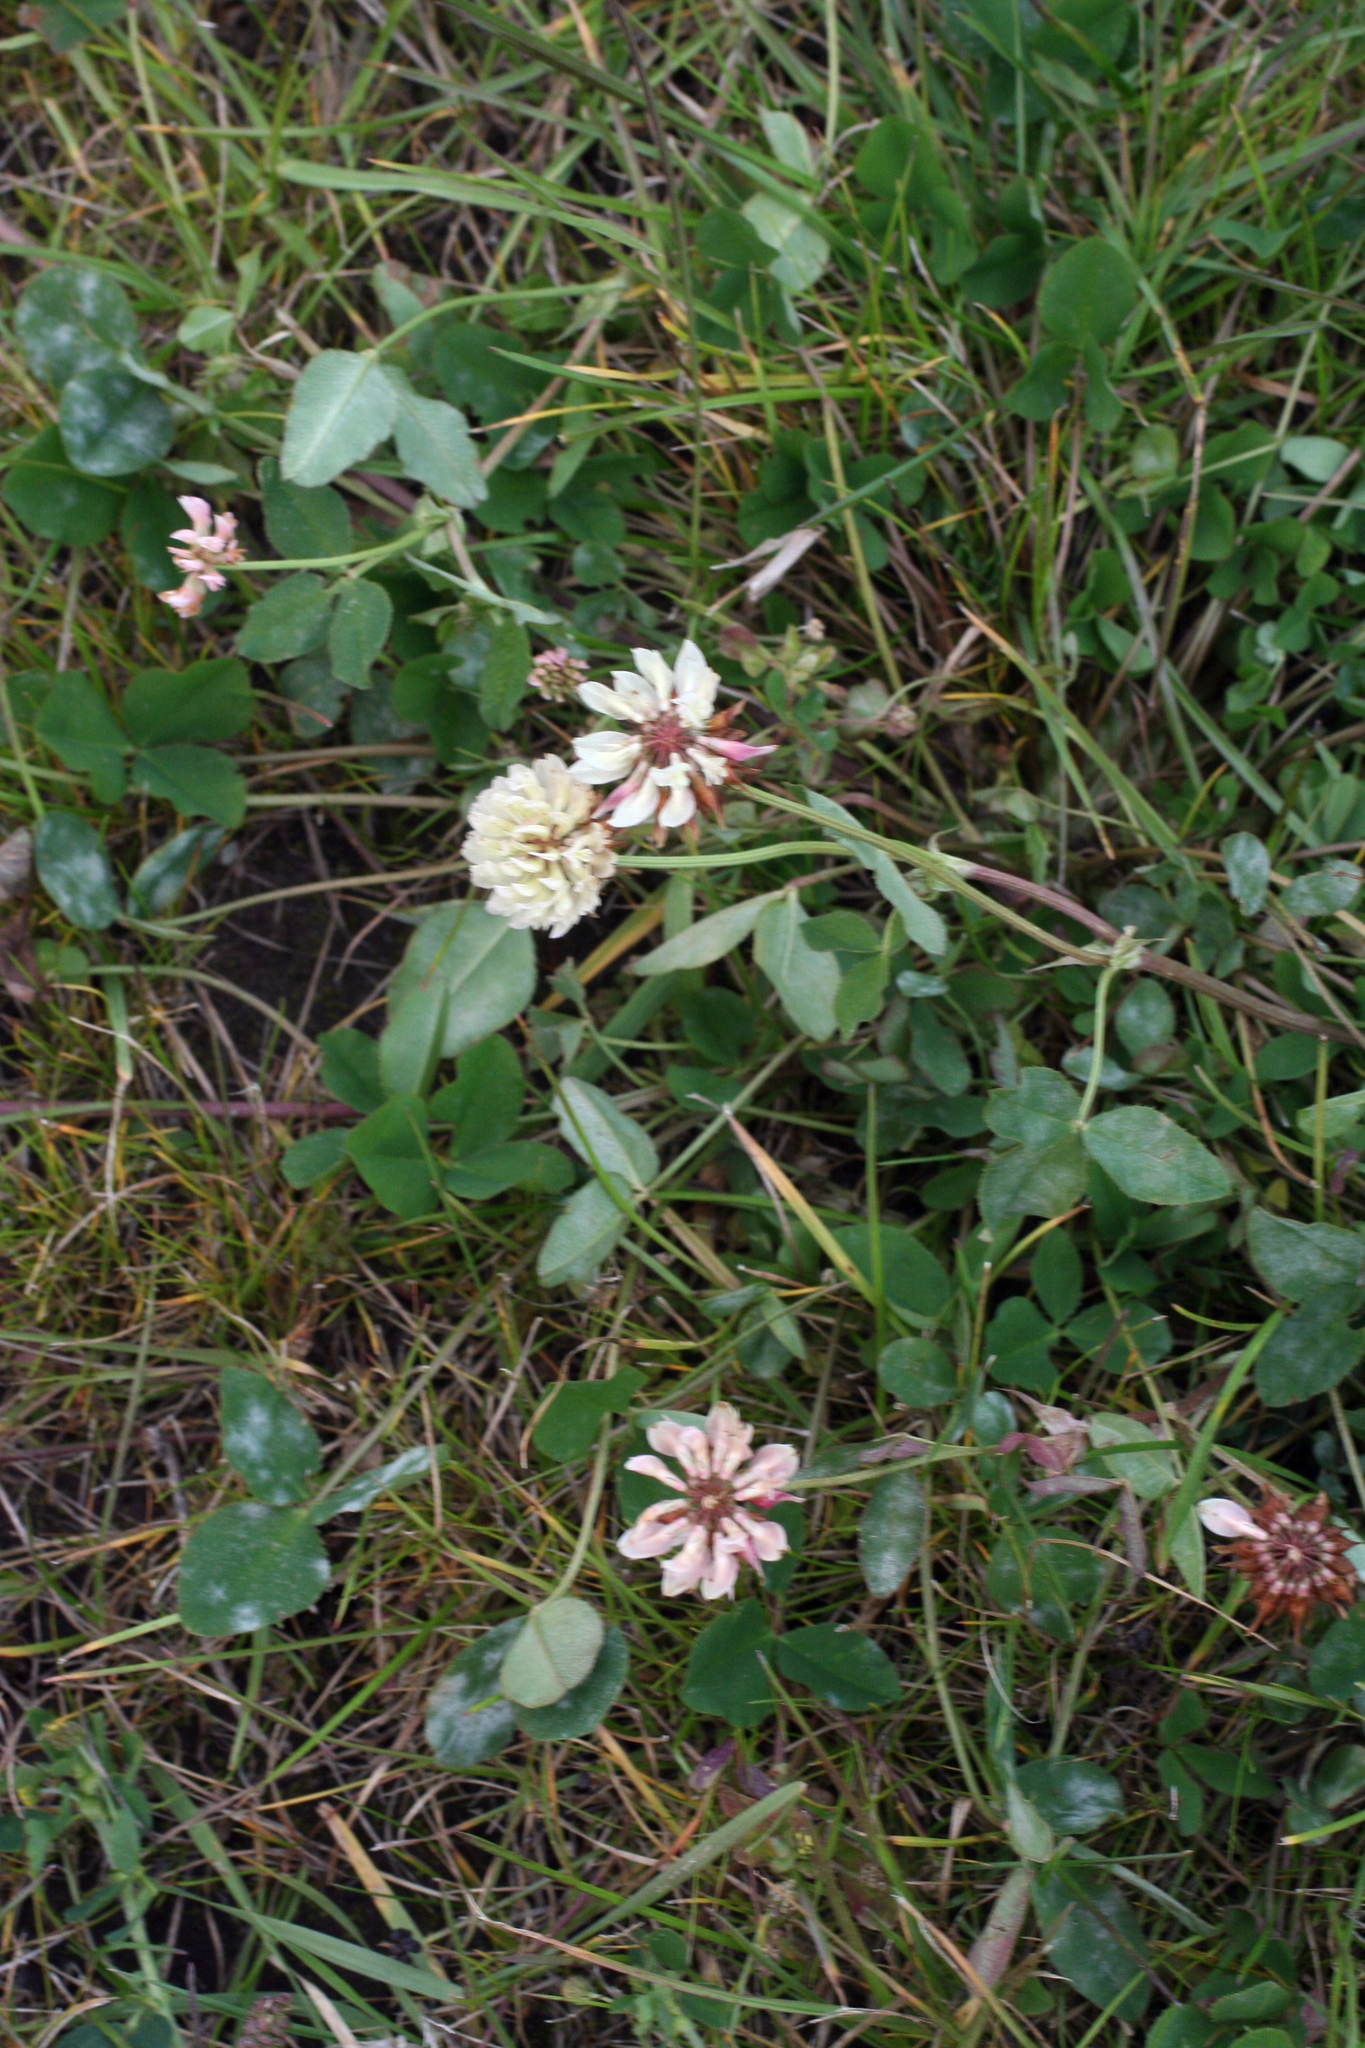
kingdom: Plantae
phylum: Tracheophyta
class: Magnoliopsida
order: Fabales
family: Fabaceae
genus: Trifolium
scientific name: Trifolium repens
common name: White clover
